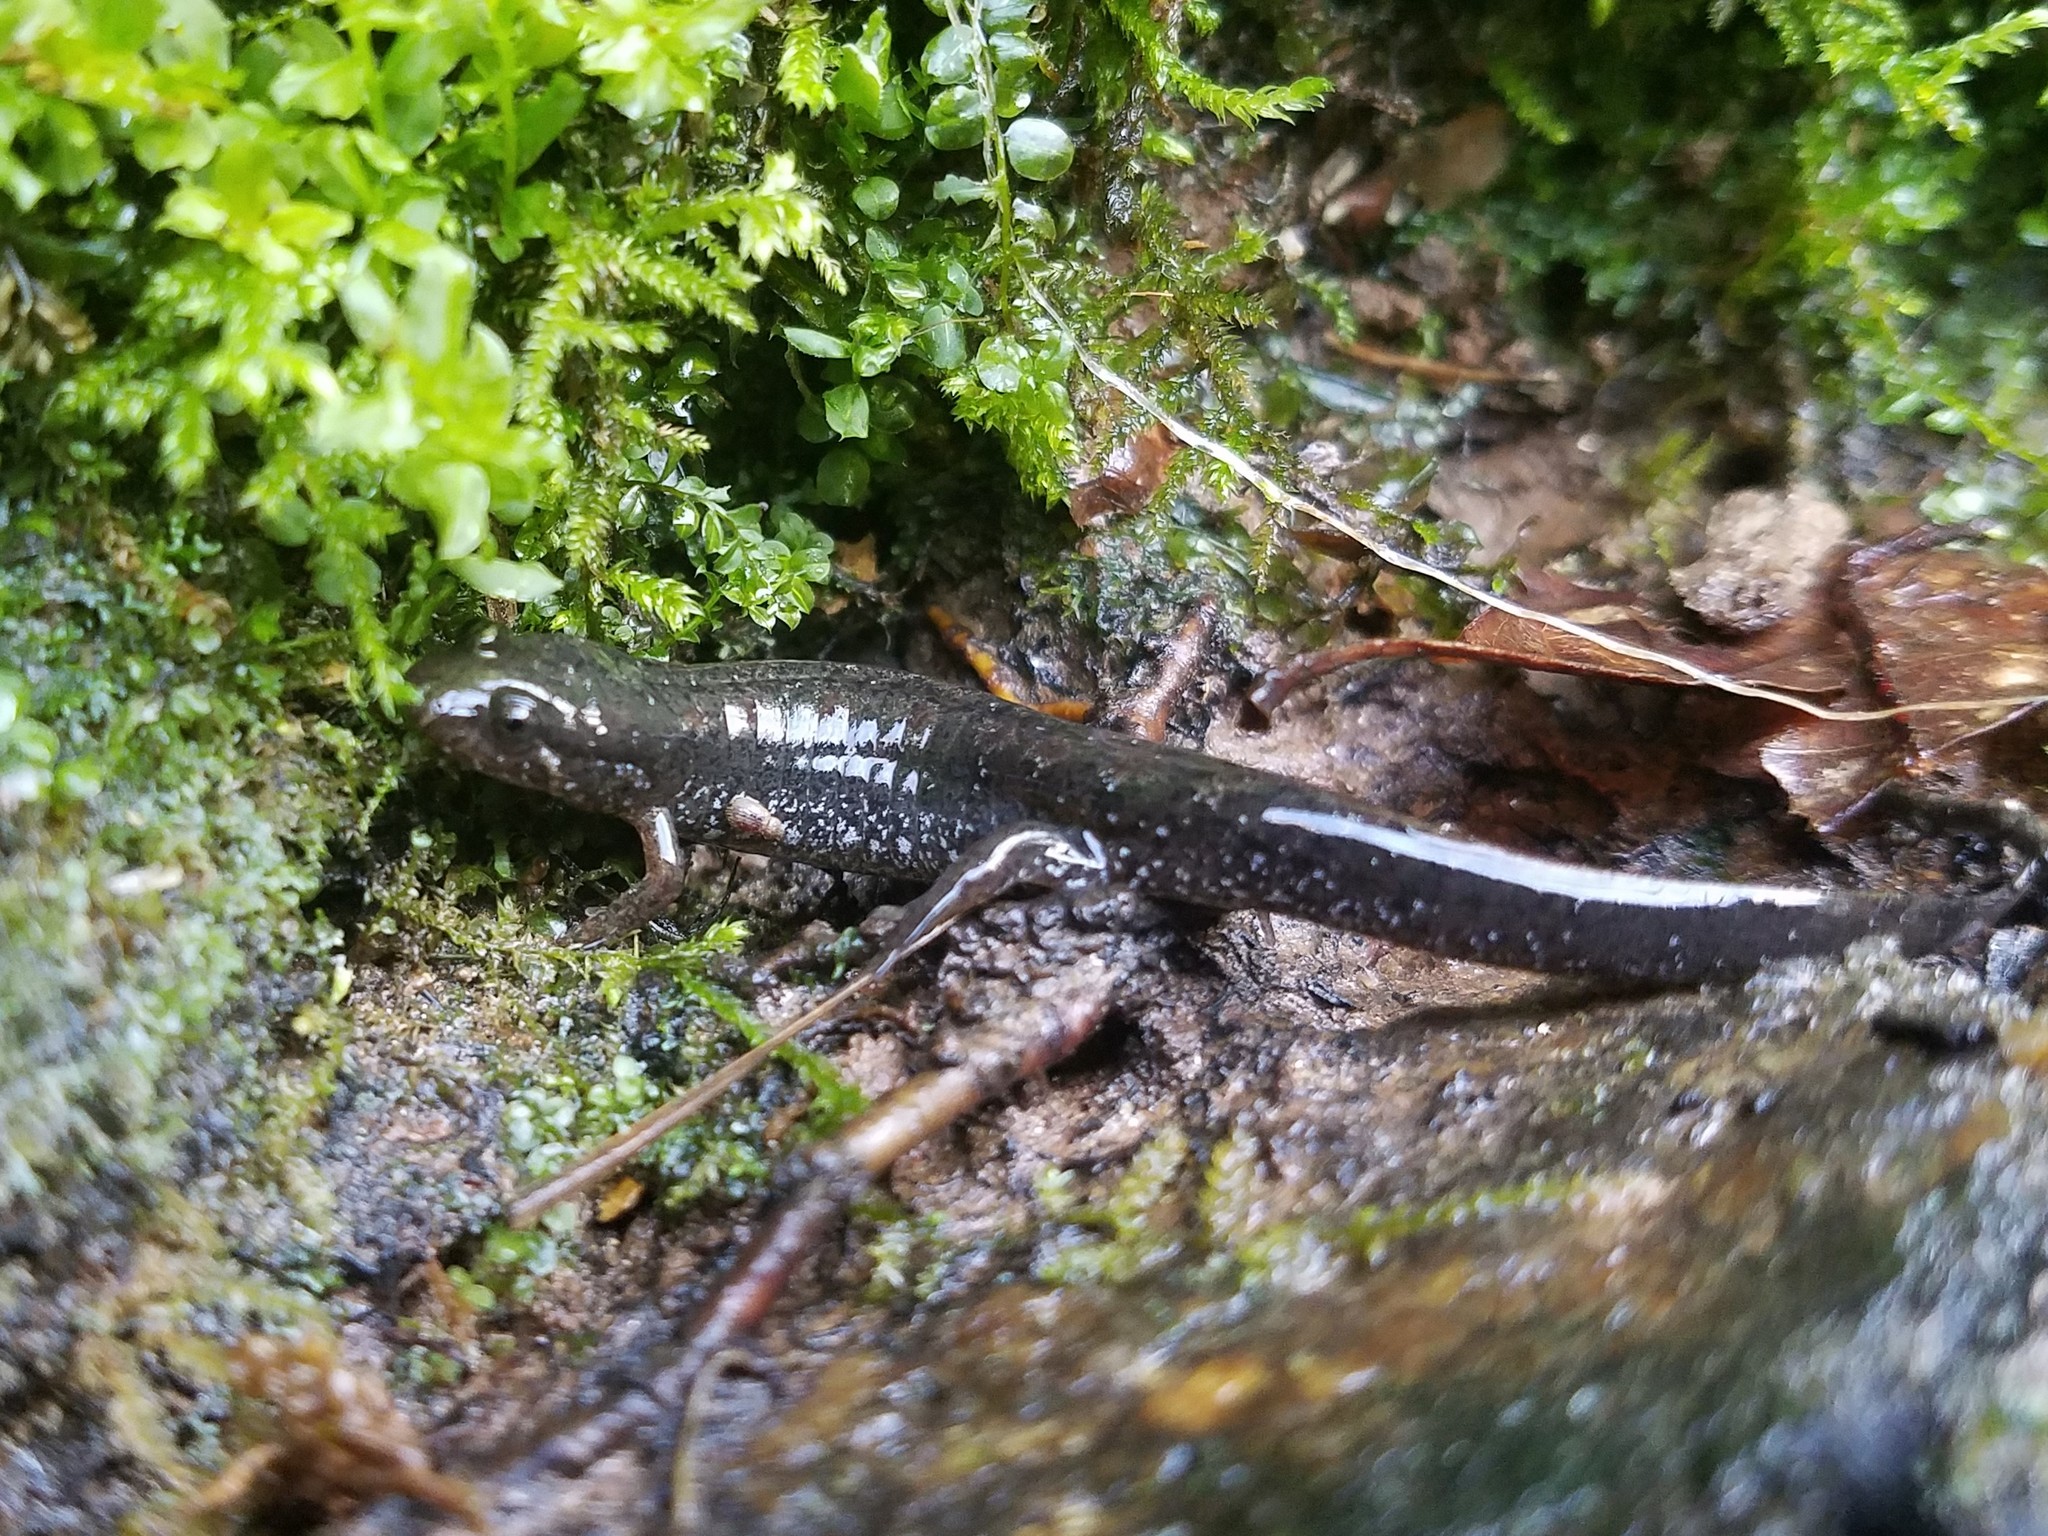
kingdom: Animalia
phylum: Chordata
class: Amphibia
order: Caudata
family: Plethodontidae
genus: Desmognathus
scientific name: Desmognathus
